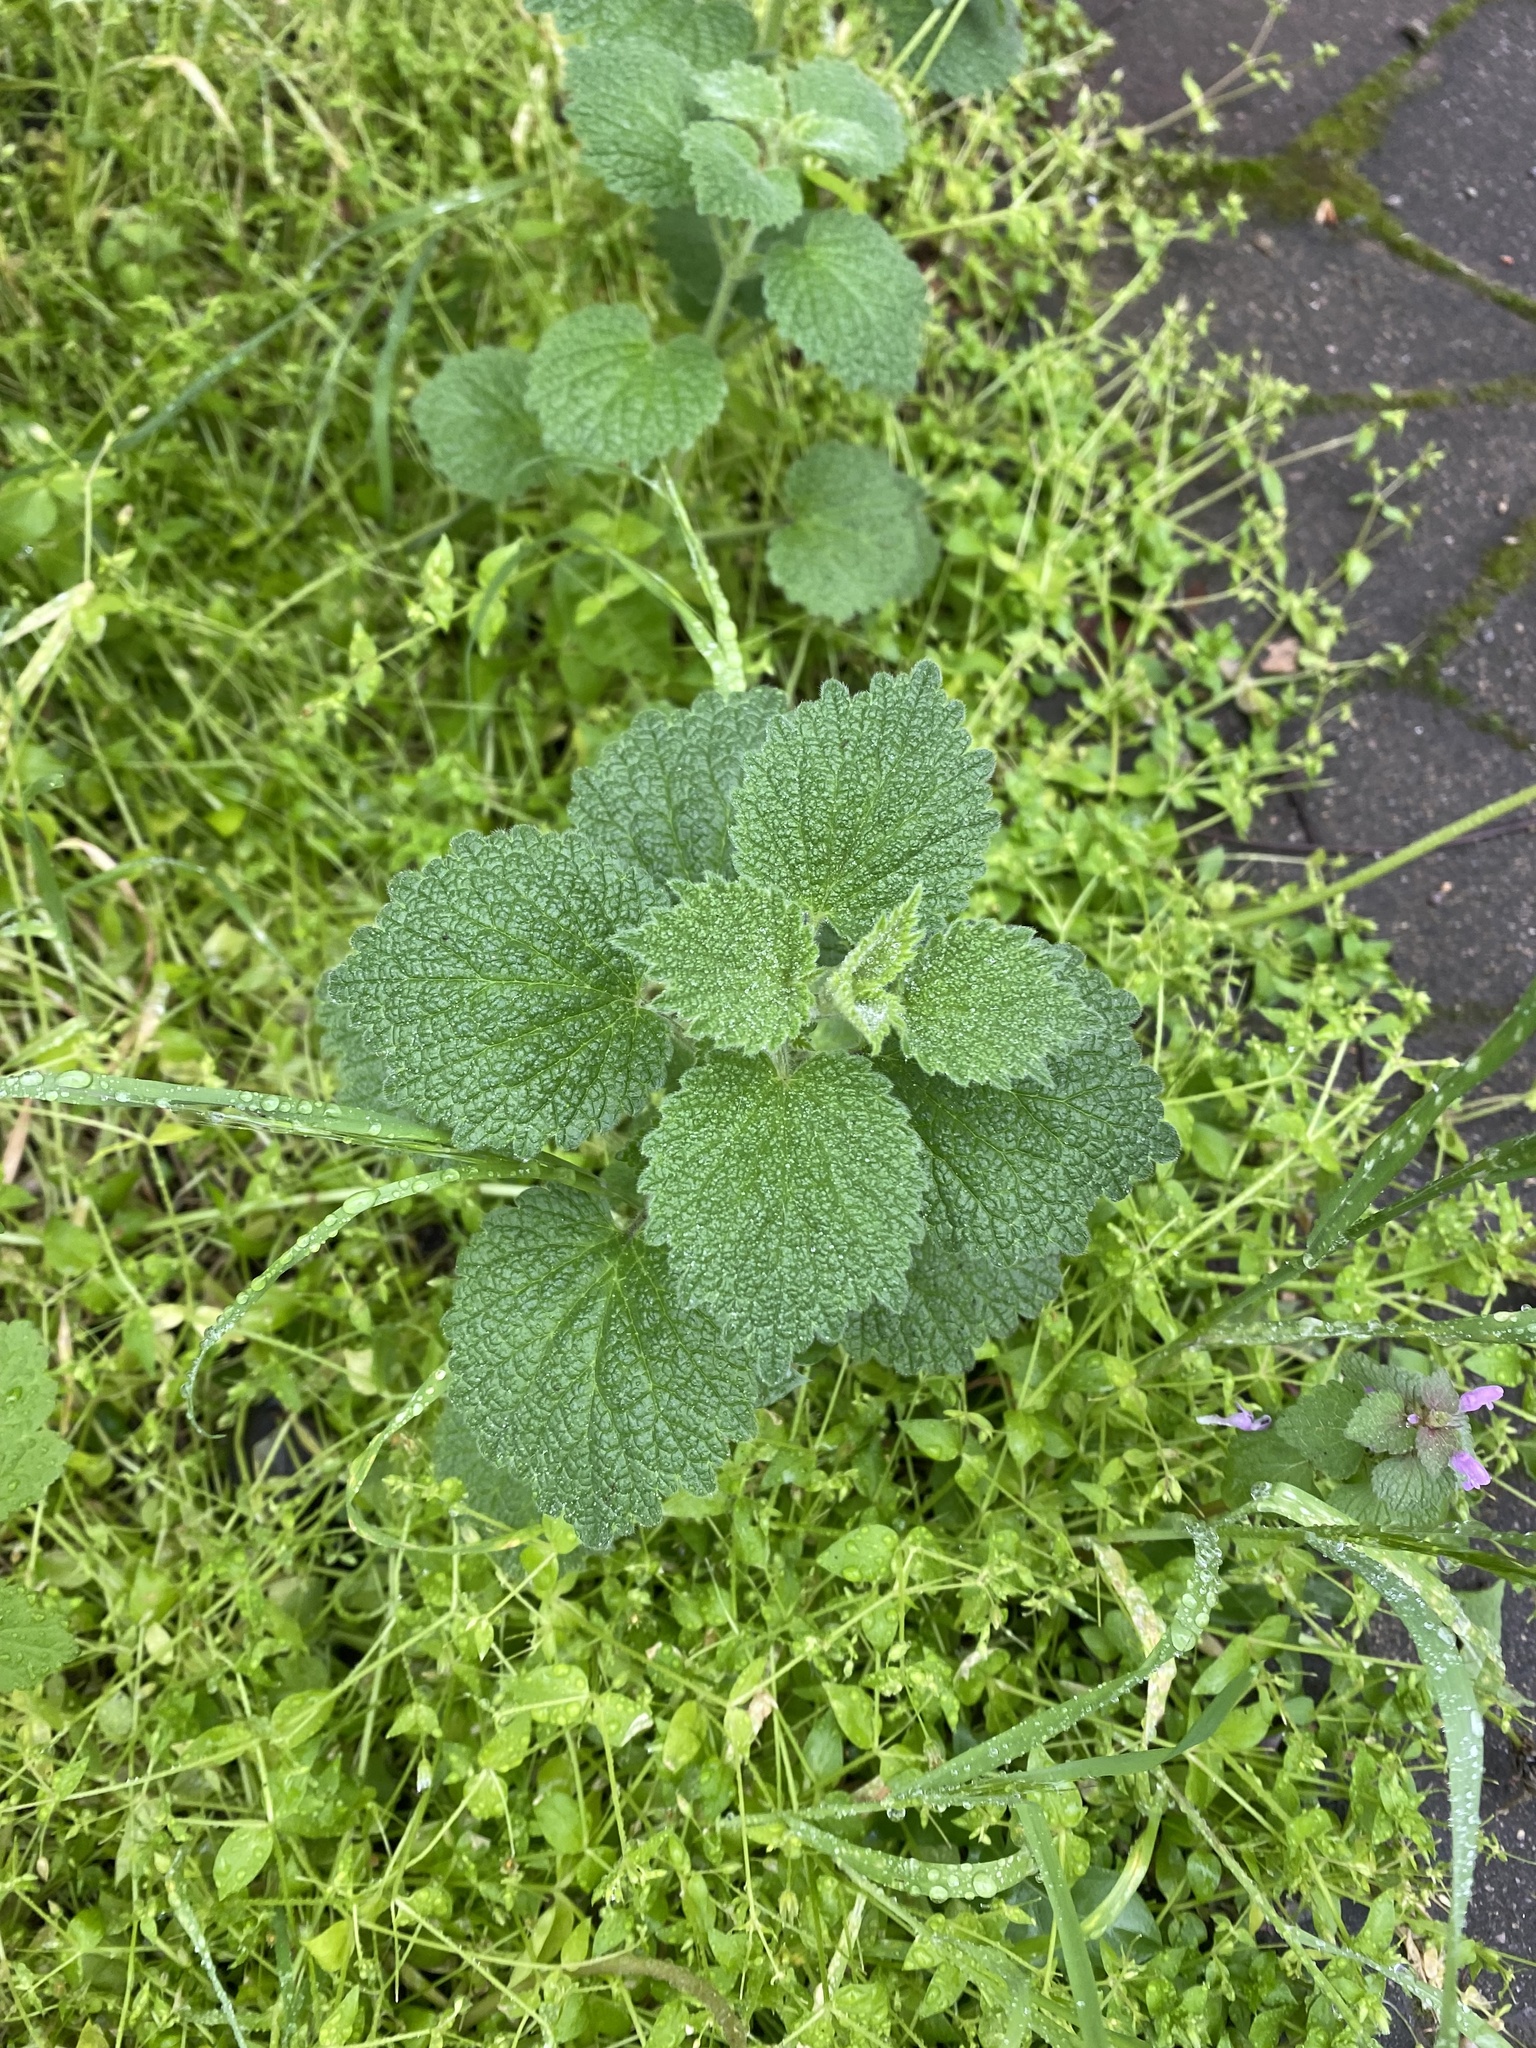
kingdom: Plantae
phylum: Tracheophyta
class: Magnoliopsida
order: Lamiales
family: Lamiaceae
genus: Ballota
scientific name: Ballota nigra
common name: Black horehound
